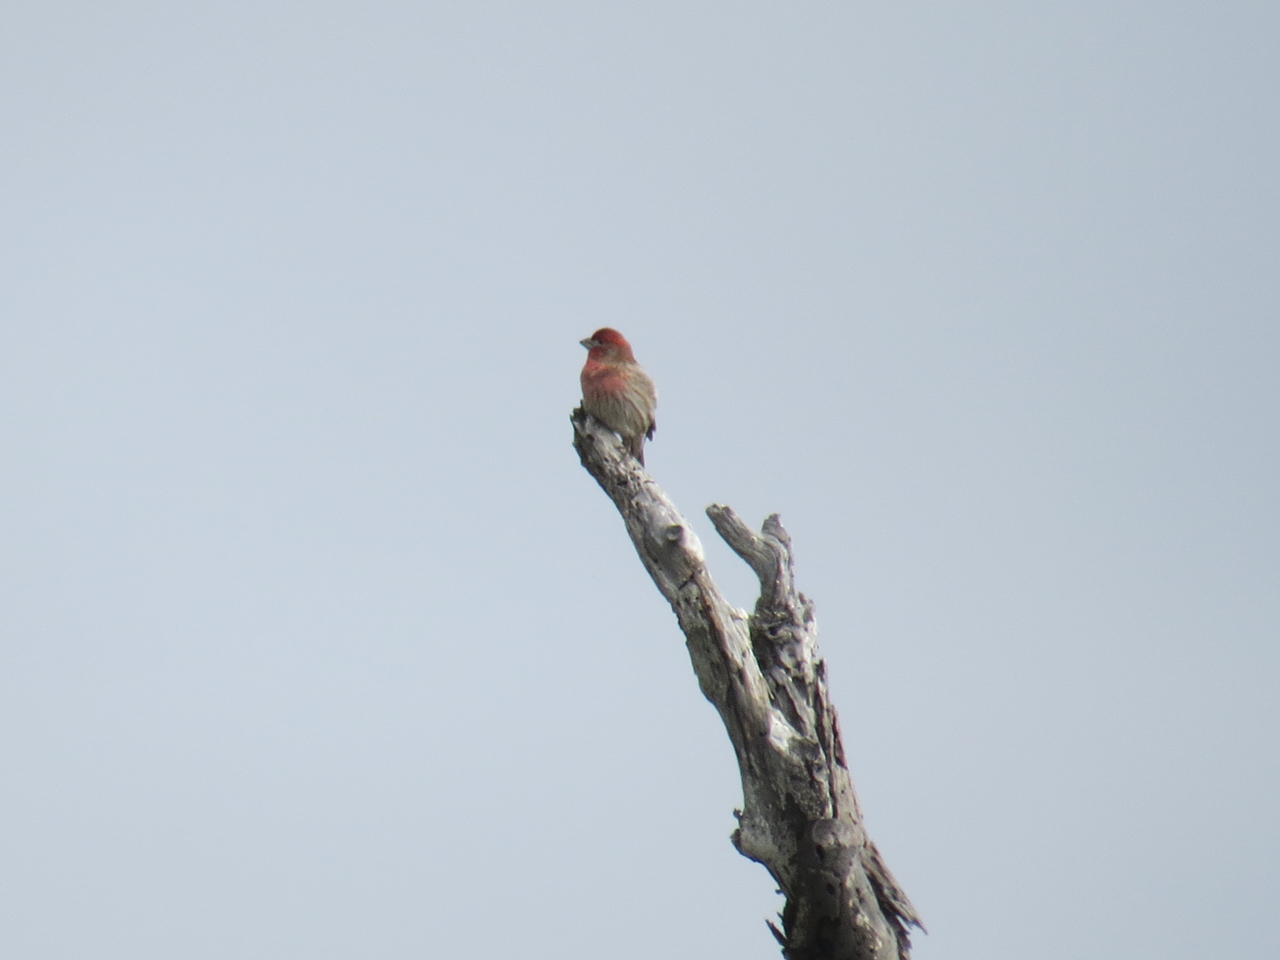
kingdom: Animalia
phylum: Chordata
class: Aves
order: Passeriformes
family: Fringillidae
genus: Haemorhous
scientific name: Haemorhous mexicanus
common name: House finch
